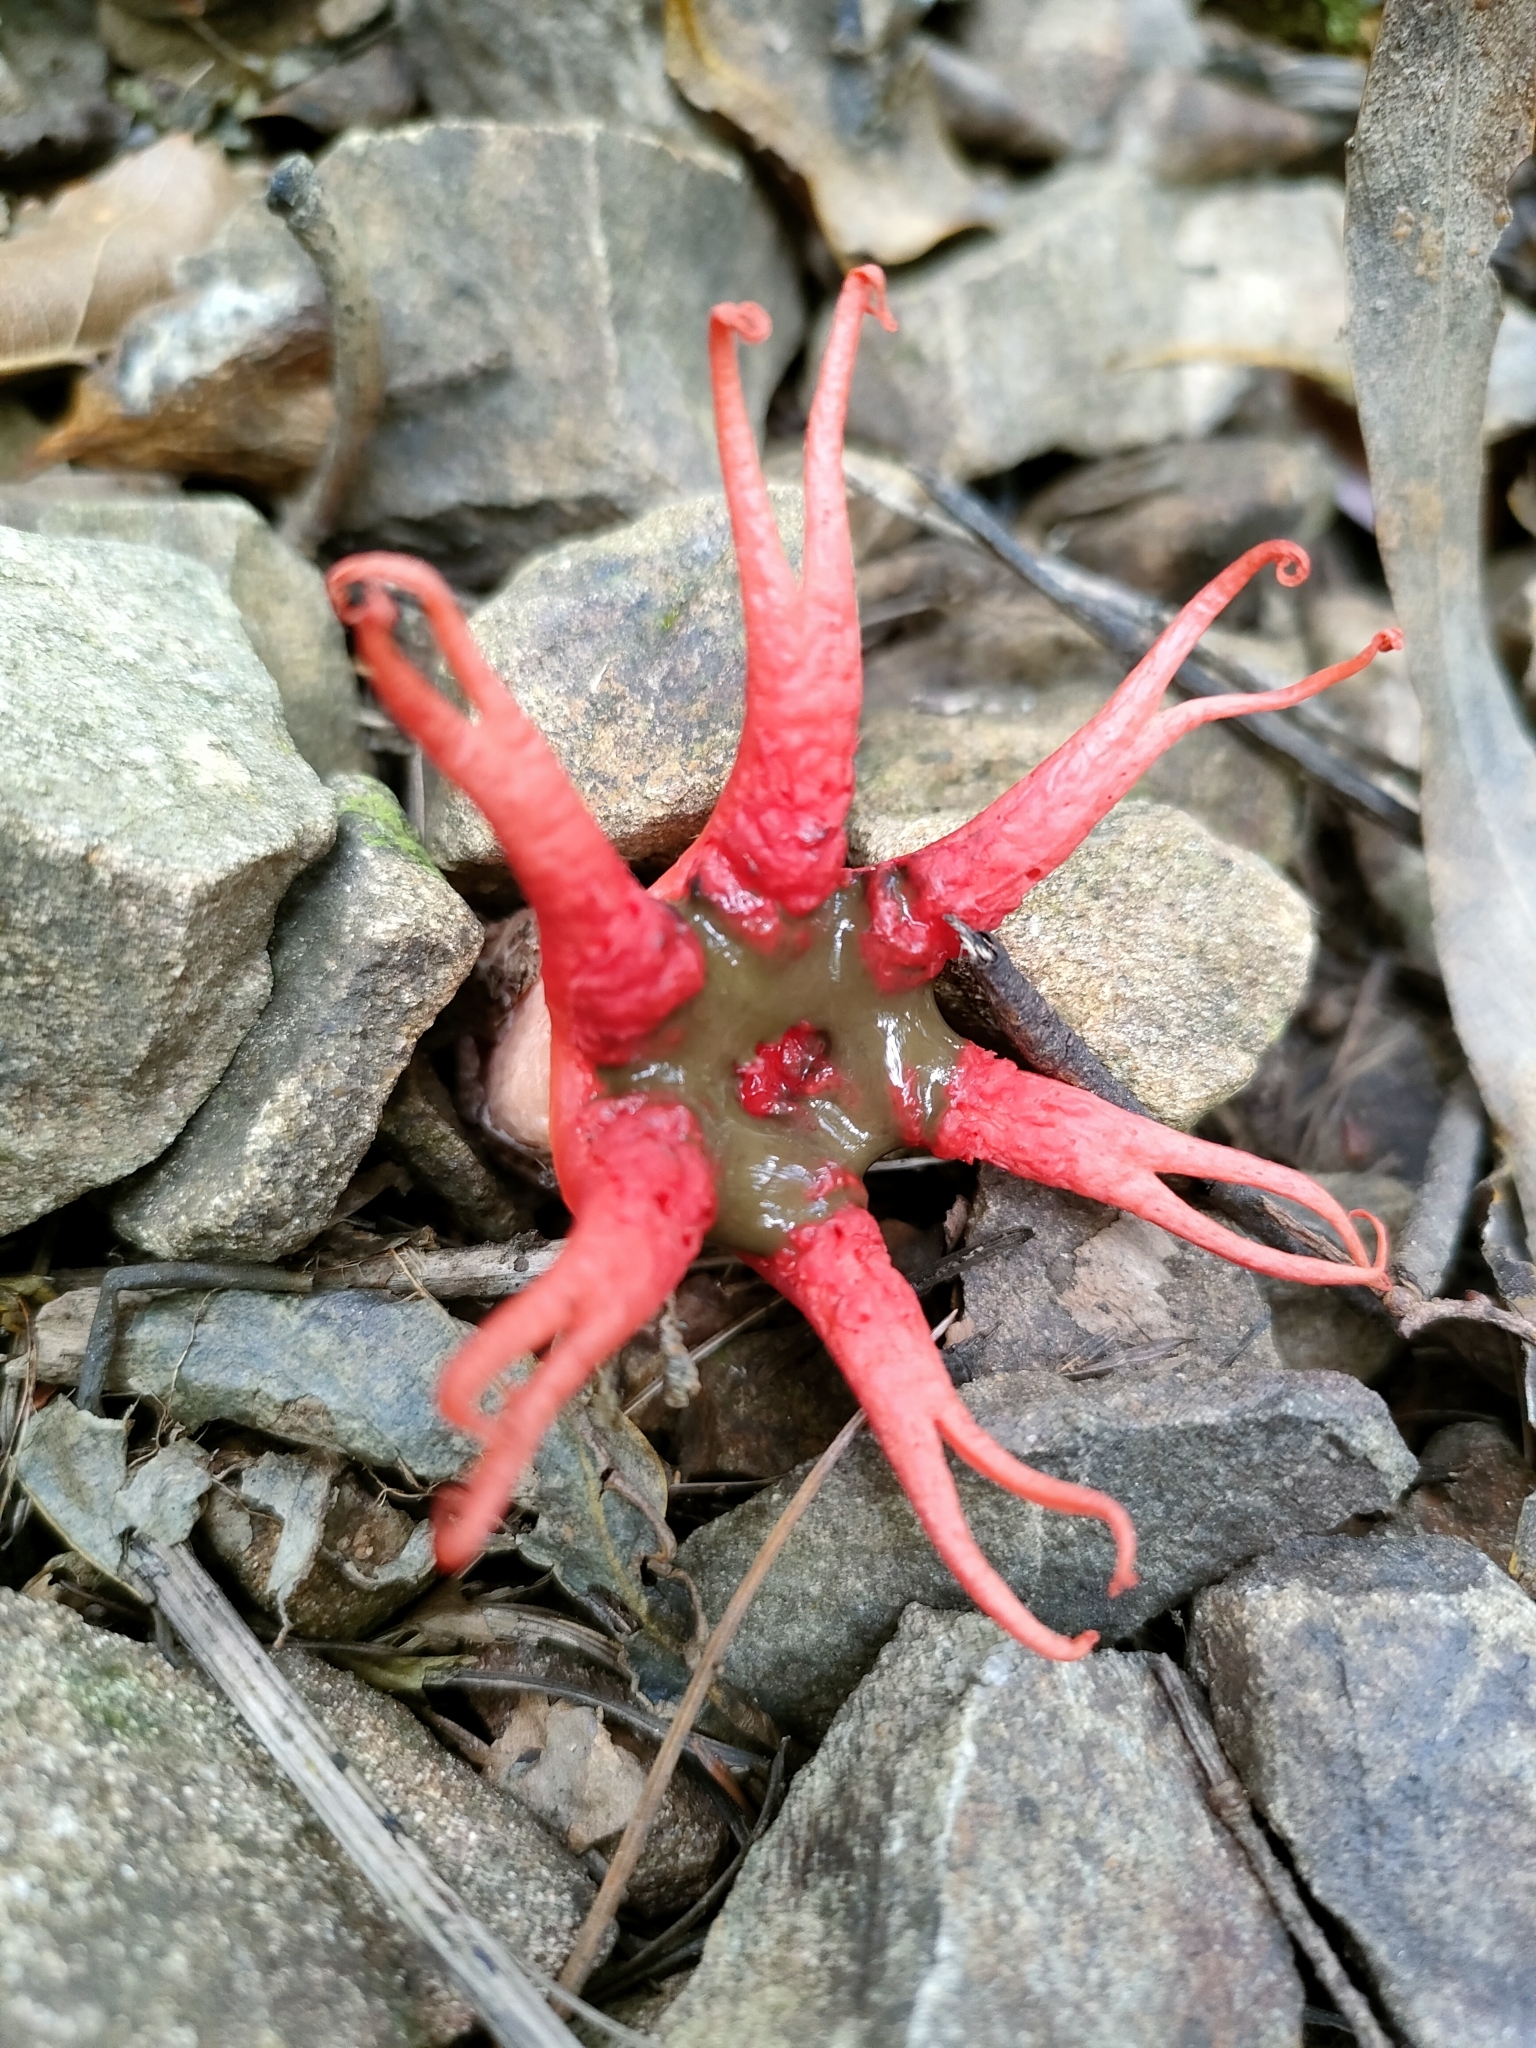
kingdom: Fungi
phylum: Basidiomycota
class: Agaricomycetes
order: Phallales
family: Phallaceae
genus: Aseroe
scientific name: Aseroe rubra
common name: Starfish fungus
